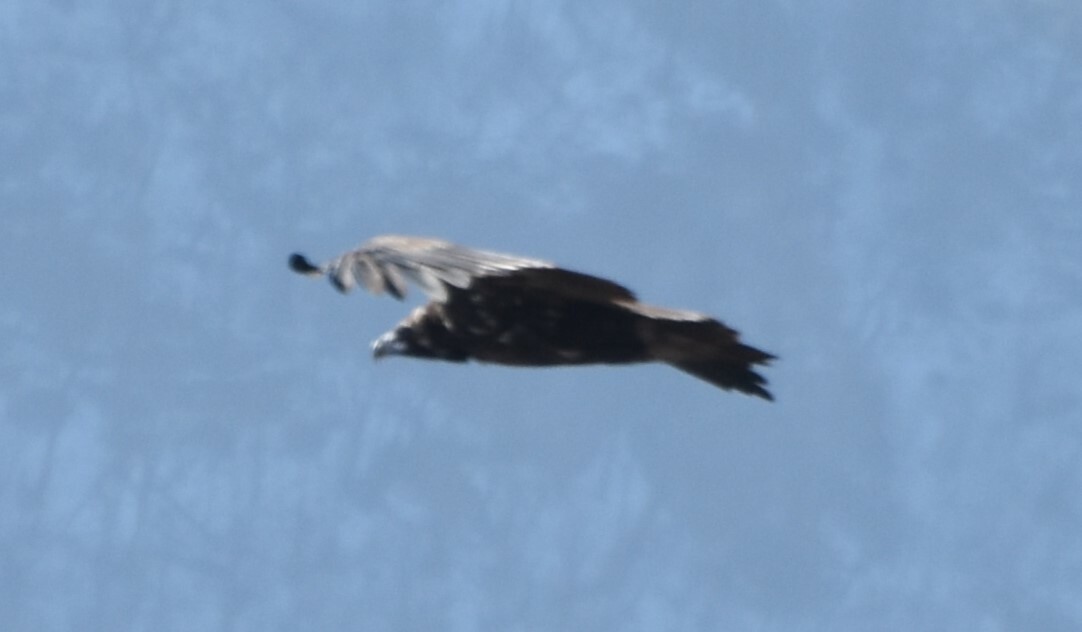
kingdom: Animalia
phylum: Chordata
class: Aves
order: Accipitriformes
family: Accipitridae
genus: Aegypius
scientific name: Aegypius monachus
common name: Cinereous vulture
